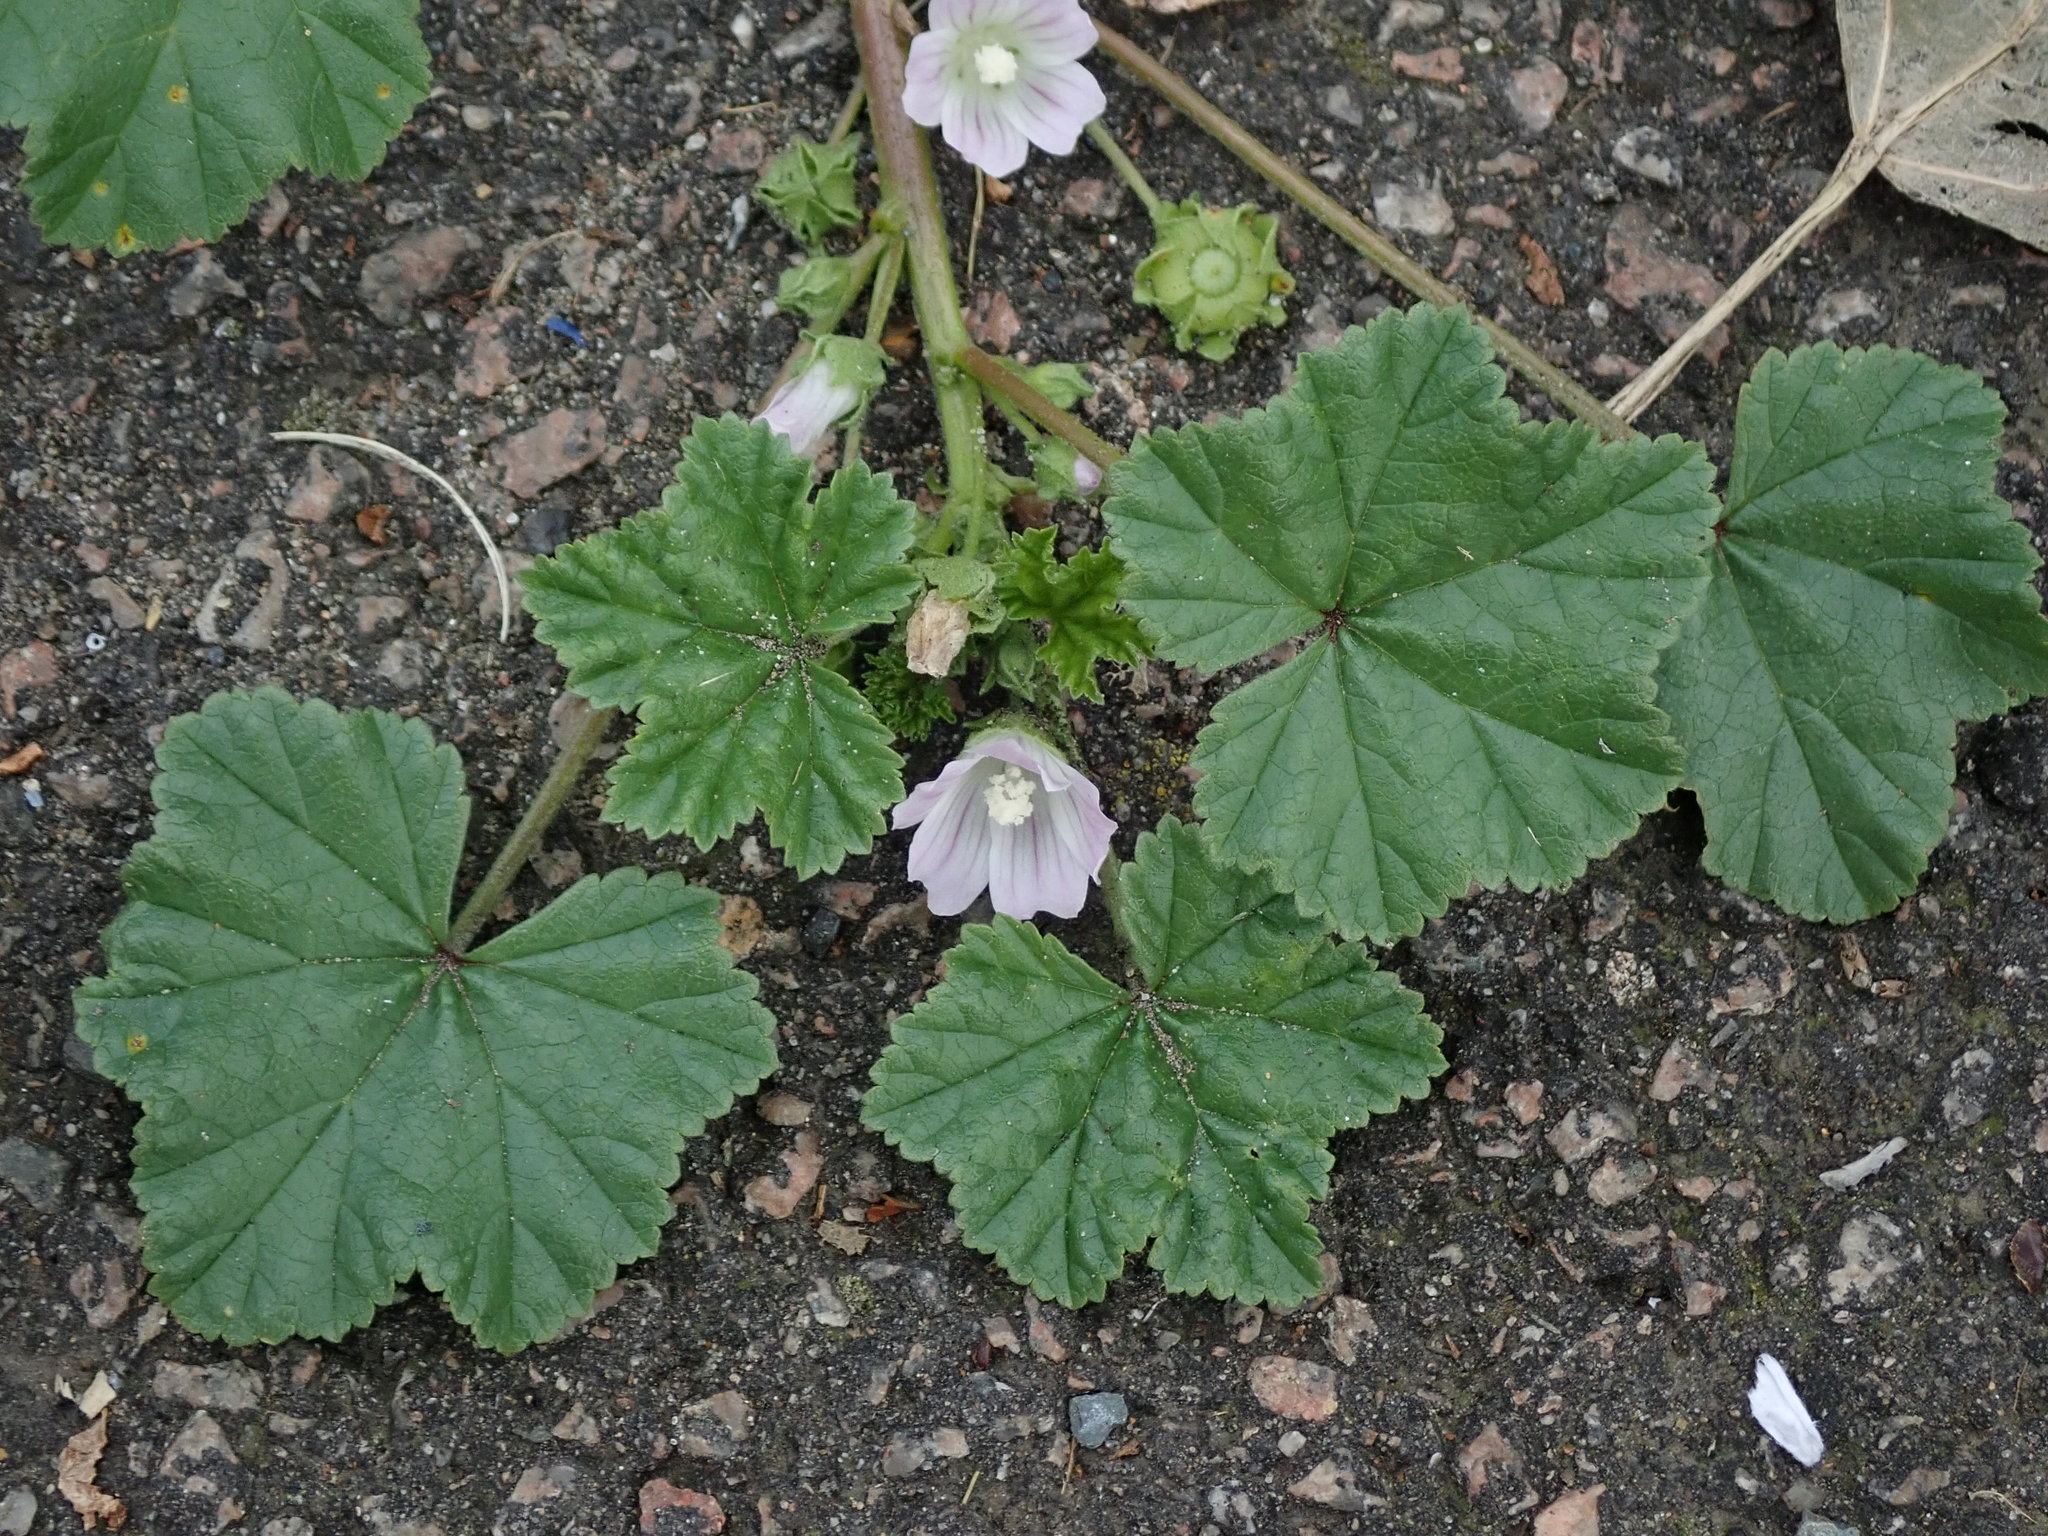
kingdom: Plantae
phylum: Tracheophyta
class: Magnoliopsida
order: Malvales
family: Malvaceae
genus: Malva
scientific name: Malva neglecta
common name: Common mallow
